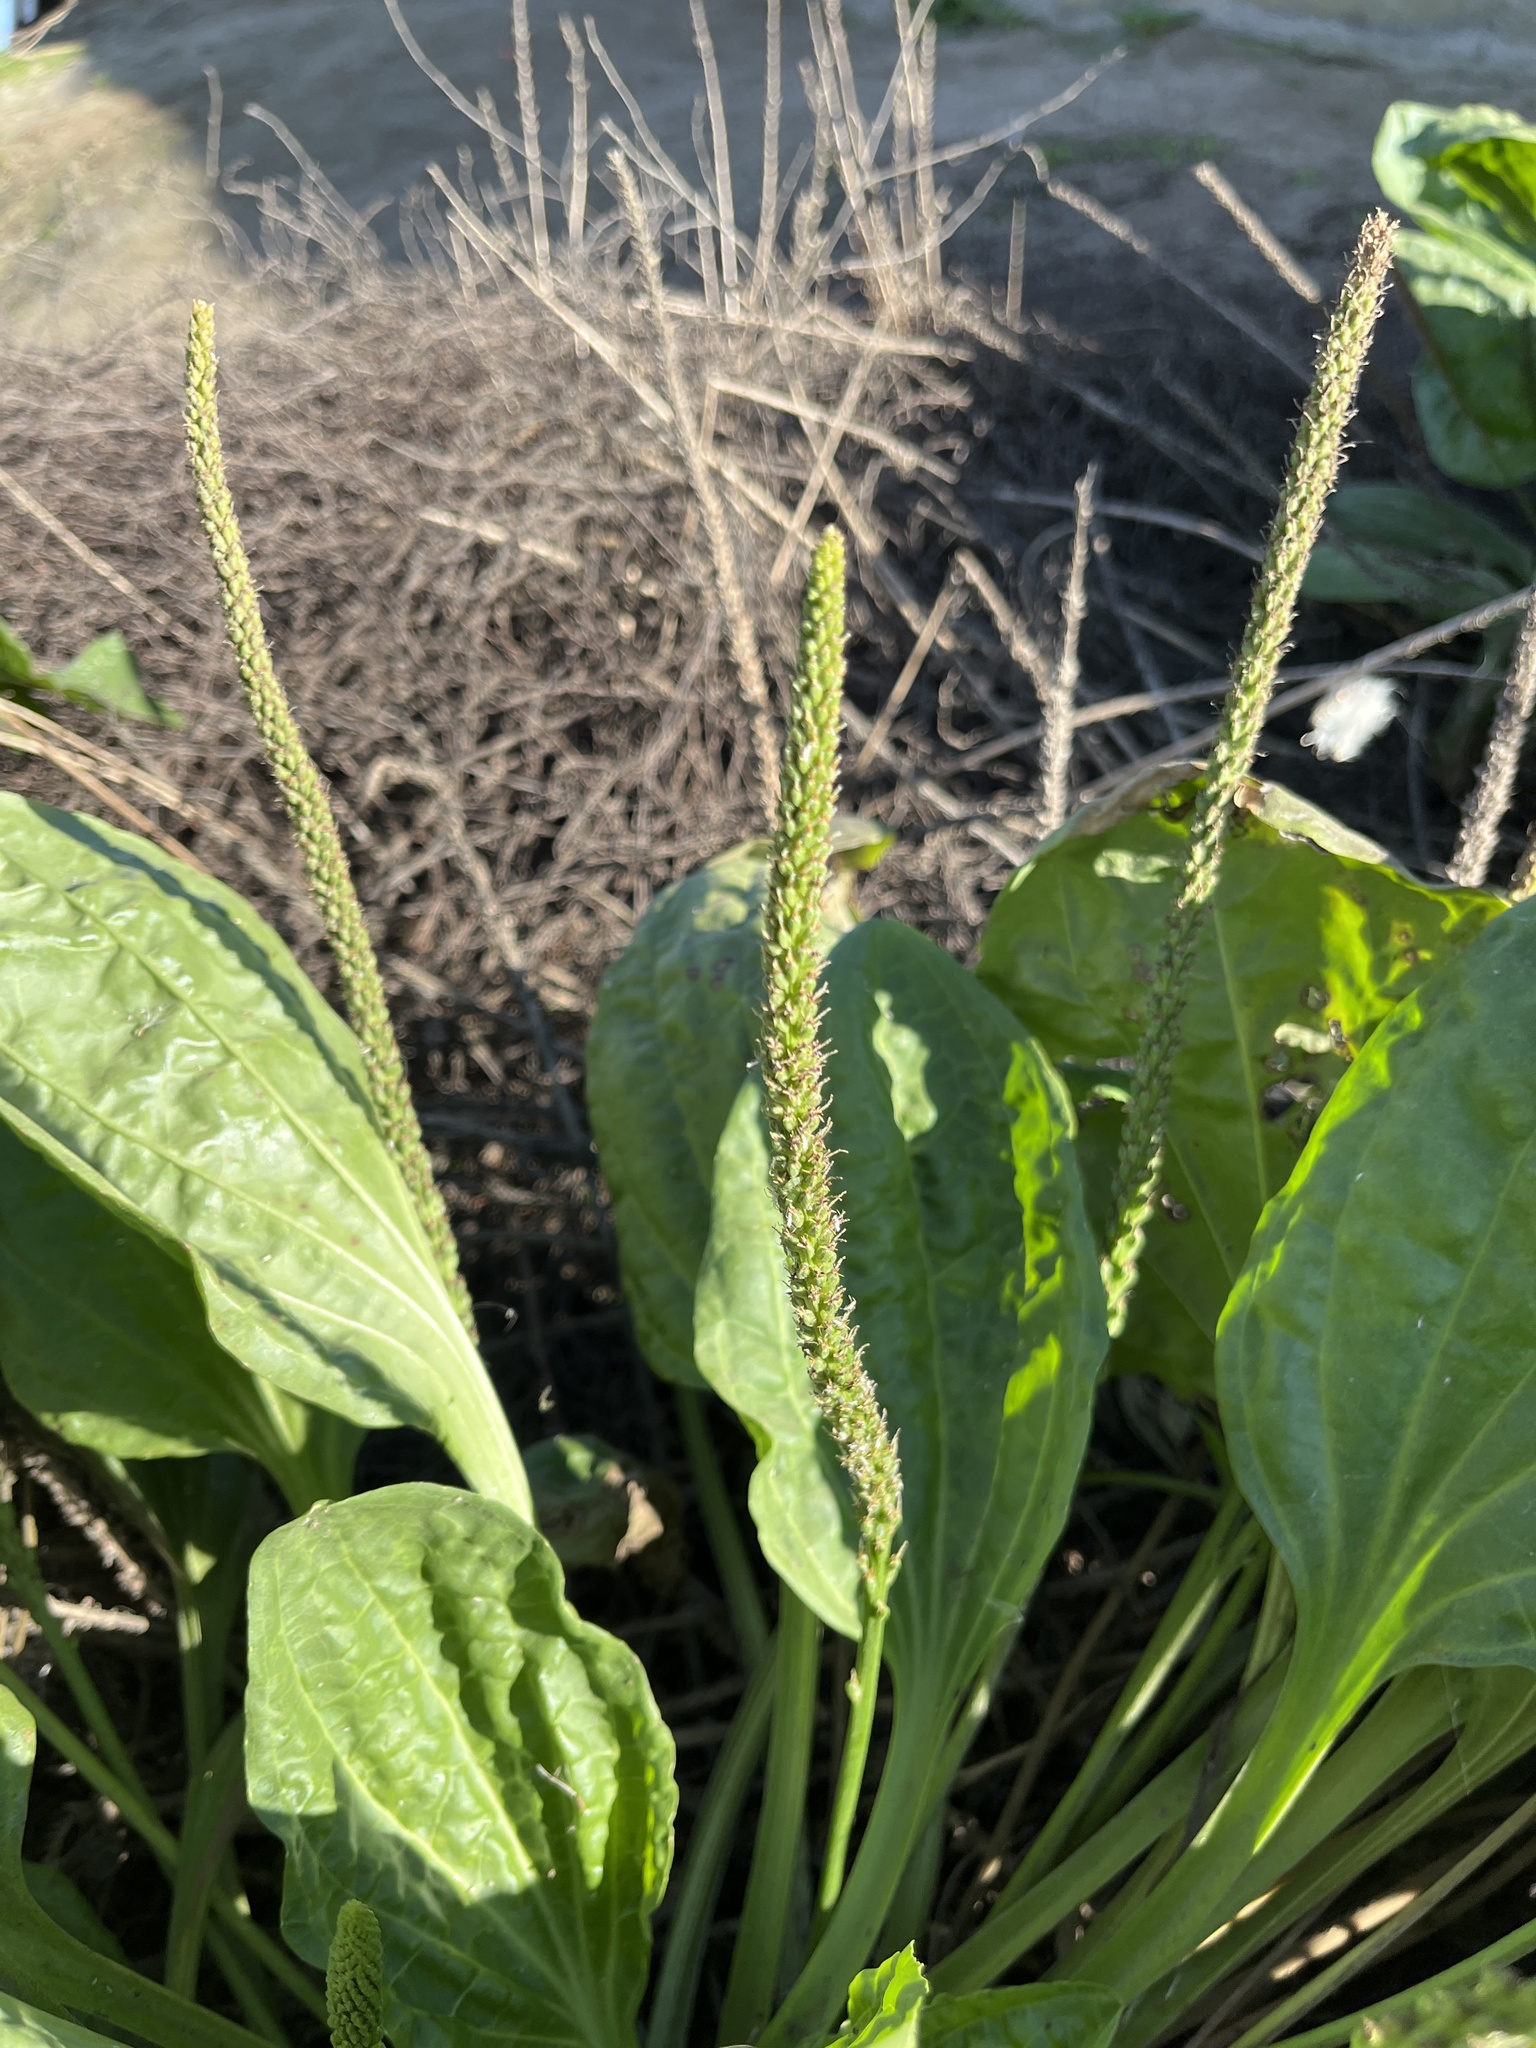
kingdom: Plantae
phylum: Tracheophyta
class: Magnoliopsida
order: Lamiales
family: Plantaginaceae
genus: Plantago
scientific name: Plantago major
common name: Common plantain
